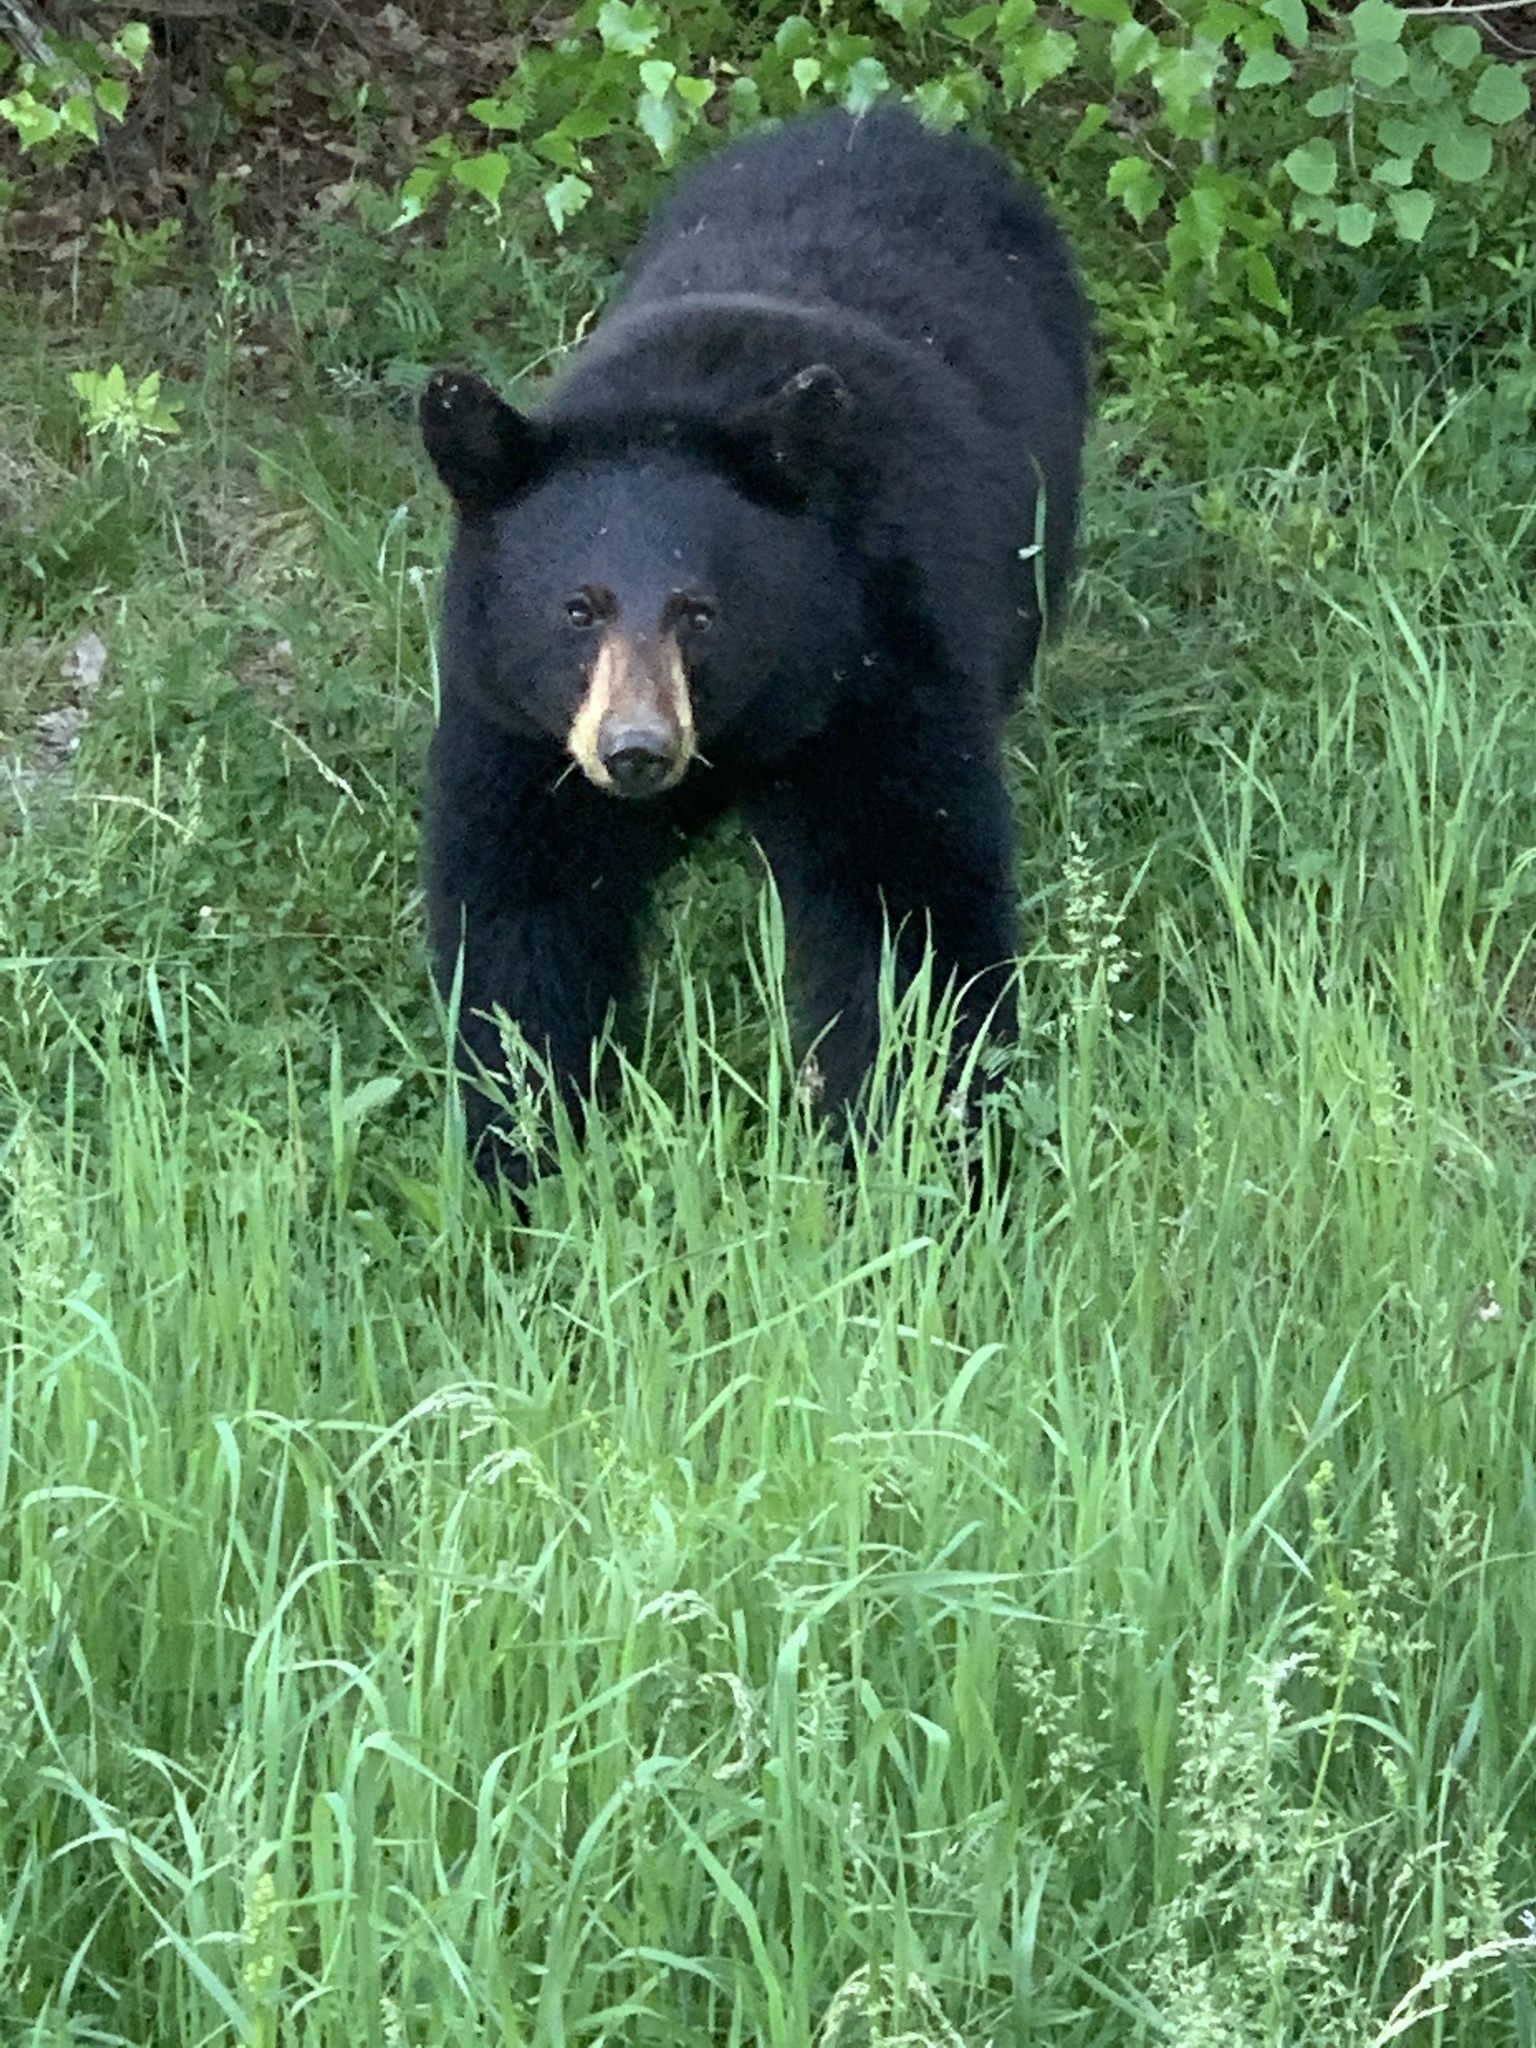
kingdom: Animalia
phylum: Chordata
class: Mammalia
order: Carnivora
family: Ursidae
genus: Ursus
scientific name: Ursus americanus
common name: American black bear
